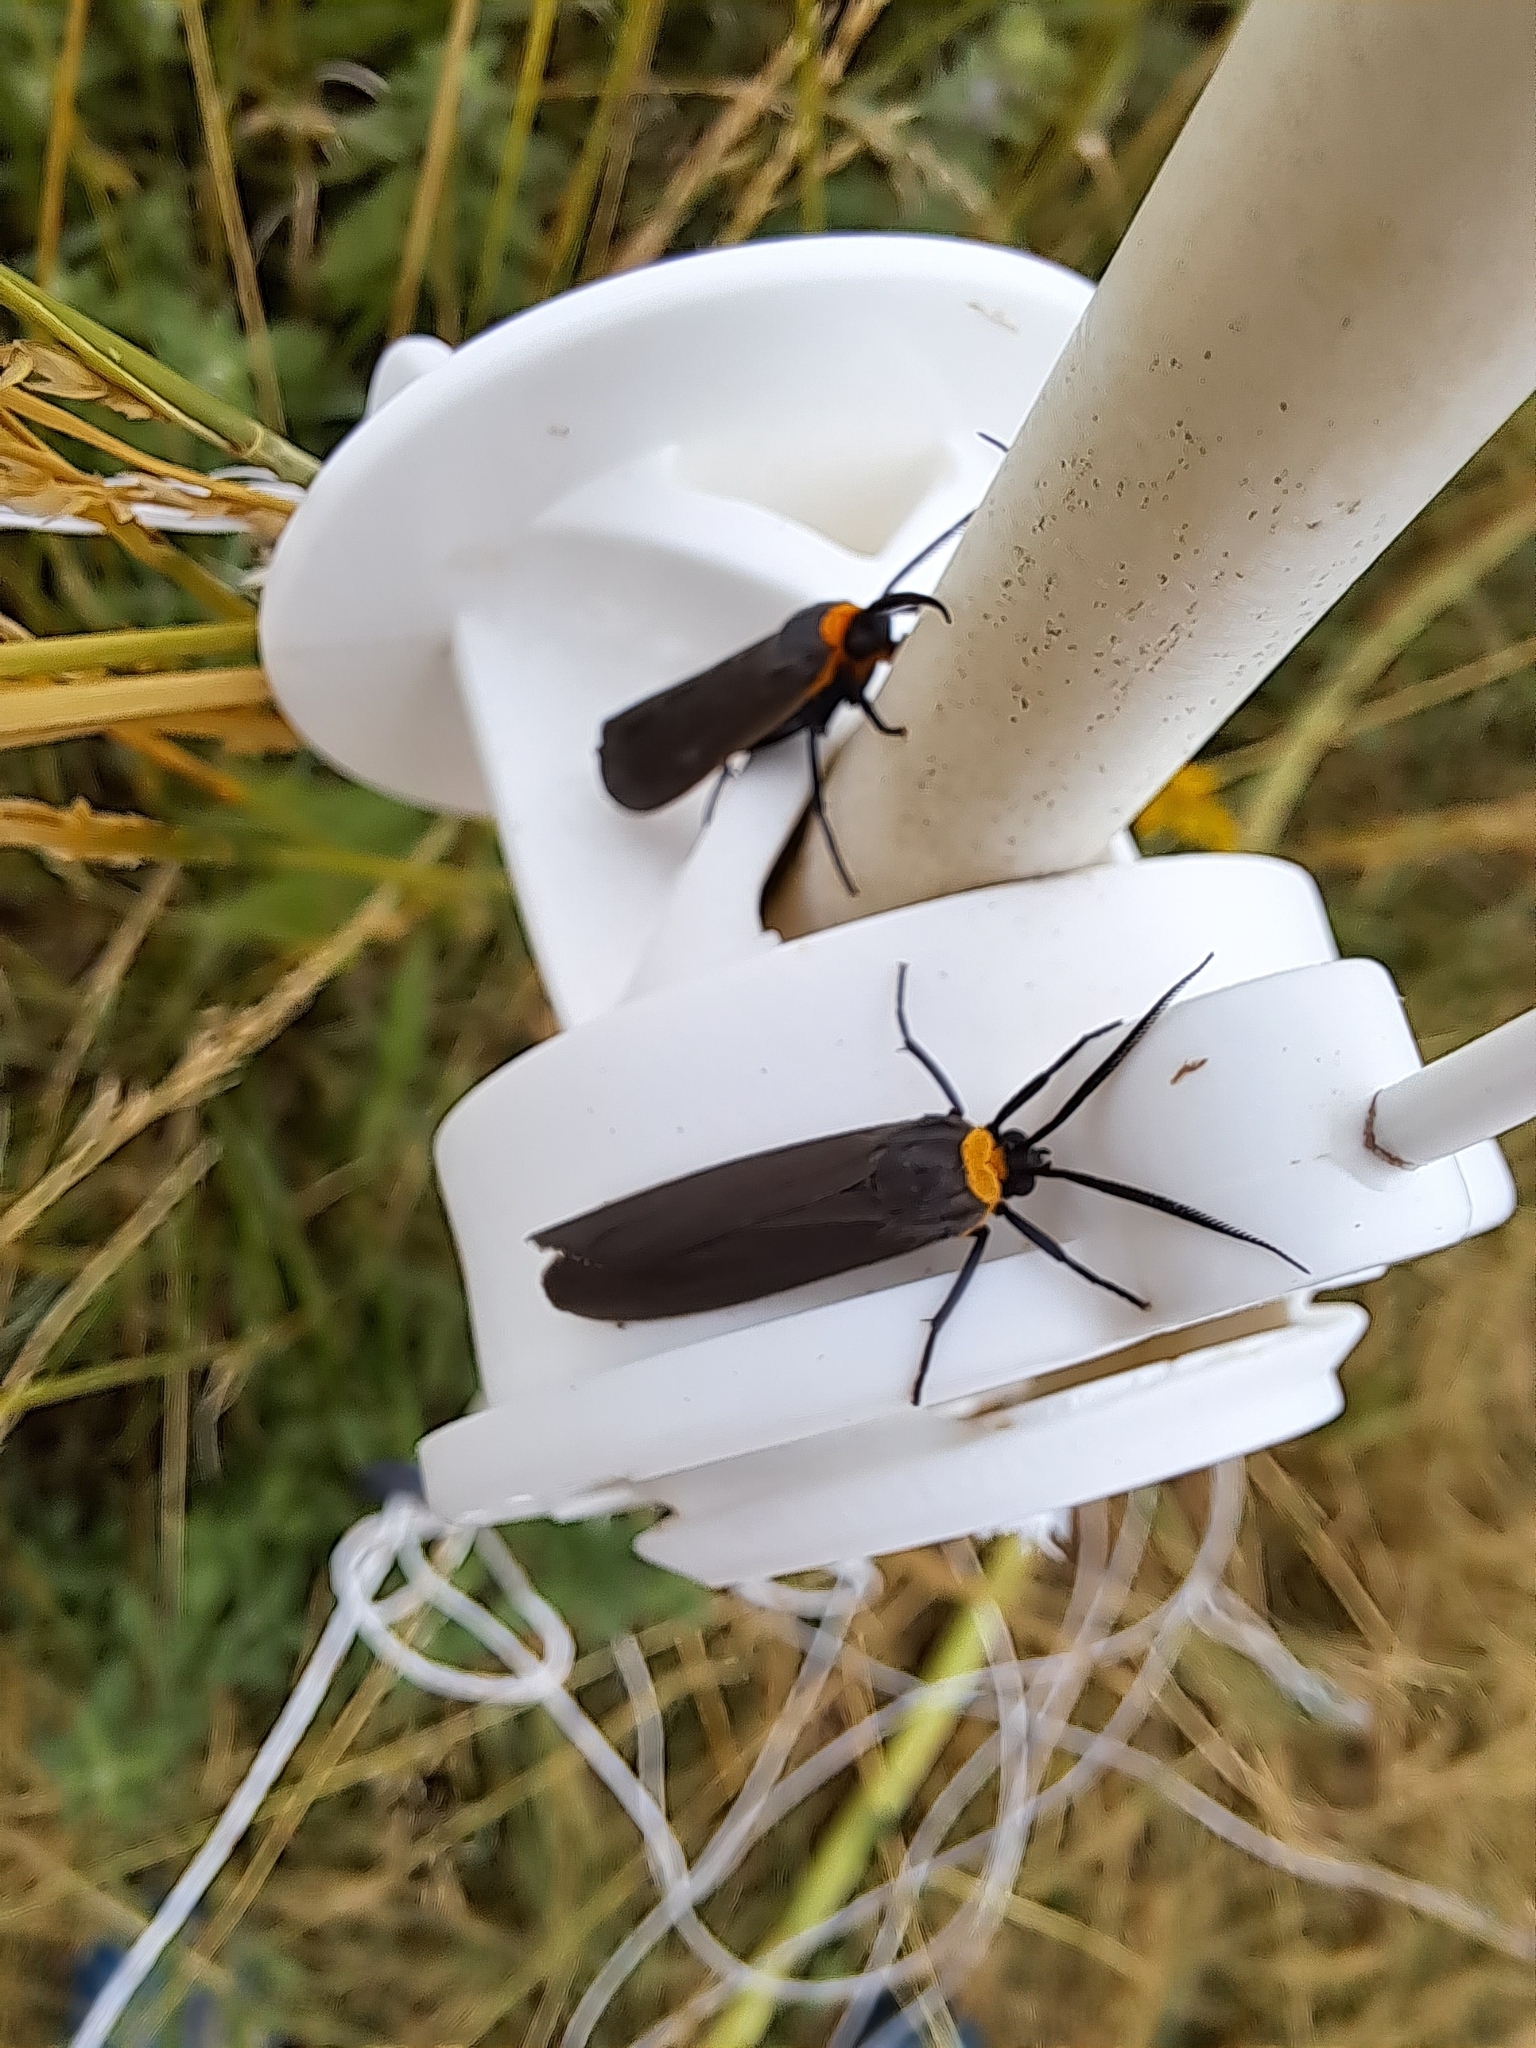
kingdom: Animalia
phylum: Arthropoda
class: Insecta
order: Lepidoptera
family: Erebidae
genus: Cisseps
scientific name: Cisseps fulvicollis
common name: Yellow-collared scape moth
